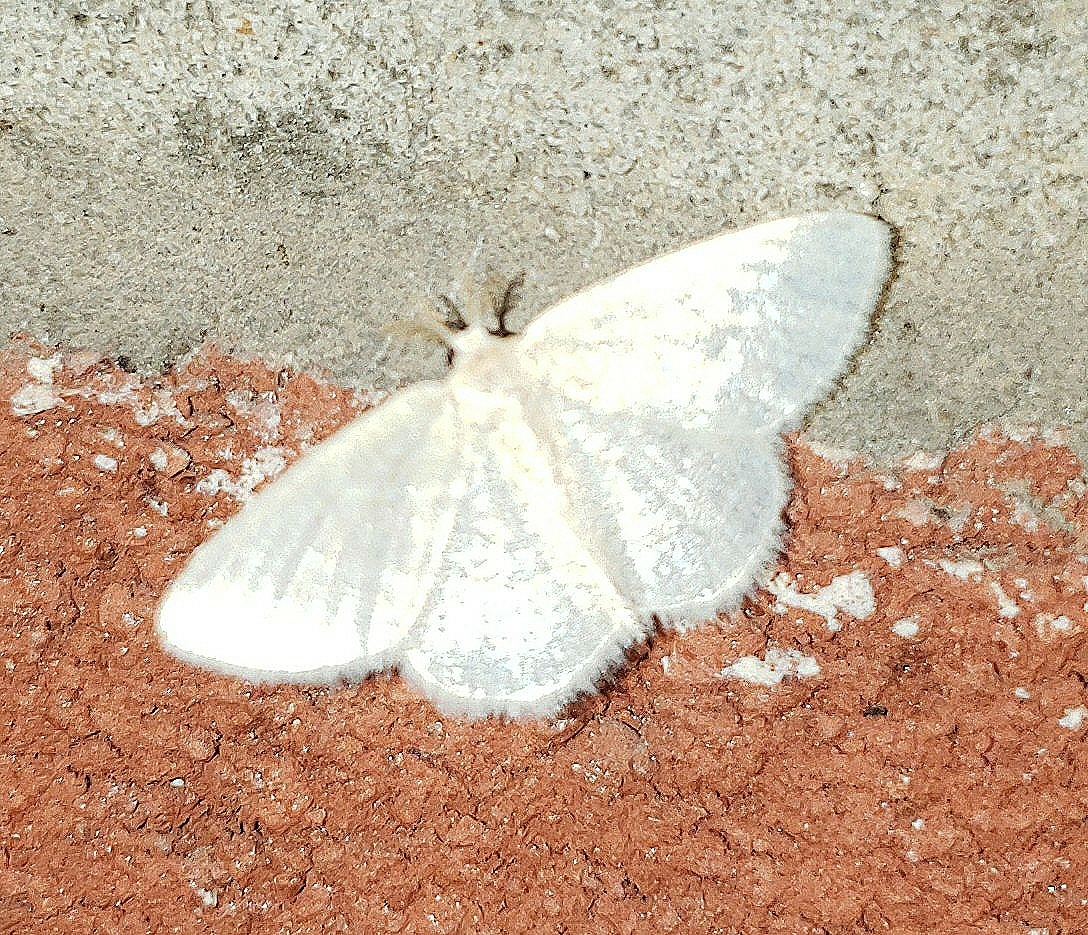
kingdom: Animalia
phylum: Arthropoda
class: Insecta
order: Lepidoptera
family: Geometridae
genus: Chlorochlamys
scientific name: Chlorochlamys chloroleucaria
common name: Blackberry looper
